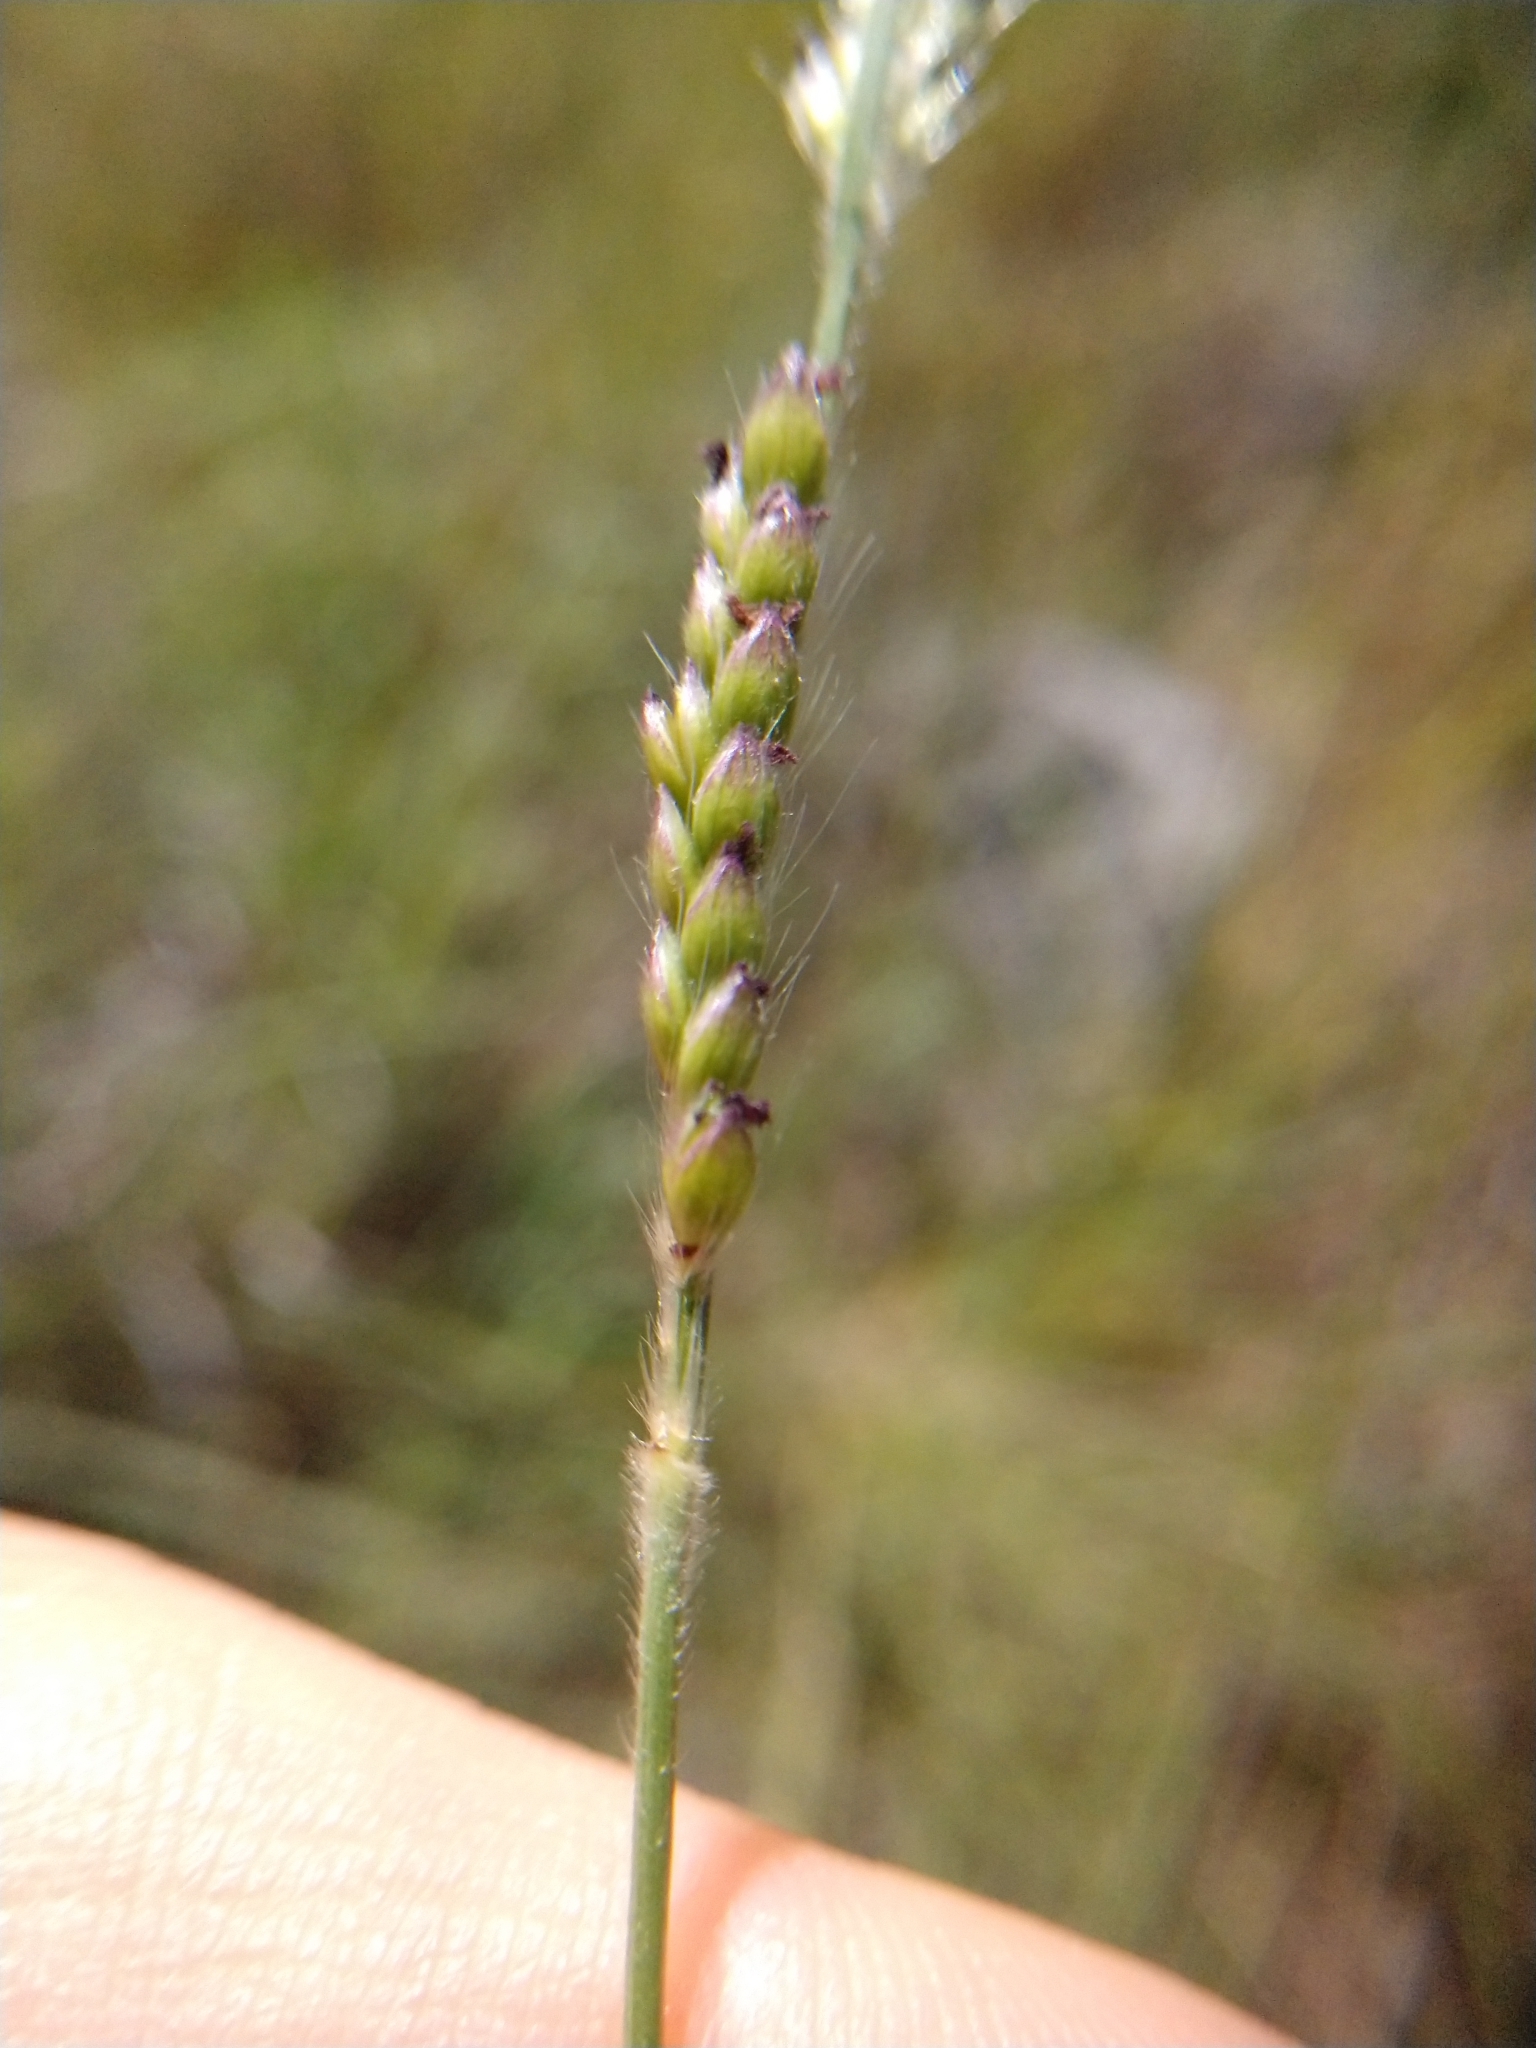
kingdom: Plantae
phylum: Tracheophyta
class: Liliopsida
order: Poales
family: Poaceae
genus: Eriochloa
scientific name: Eriochloa sericea
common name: Texas cup grass
